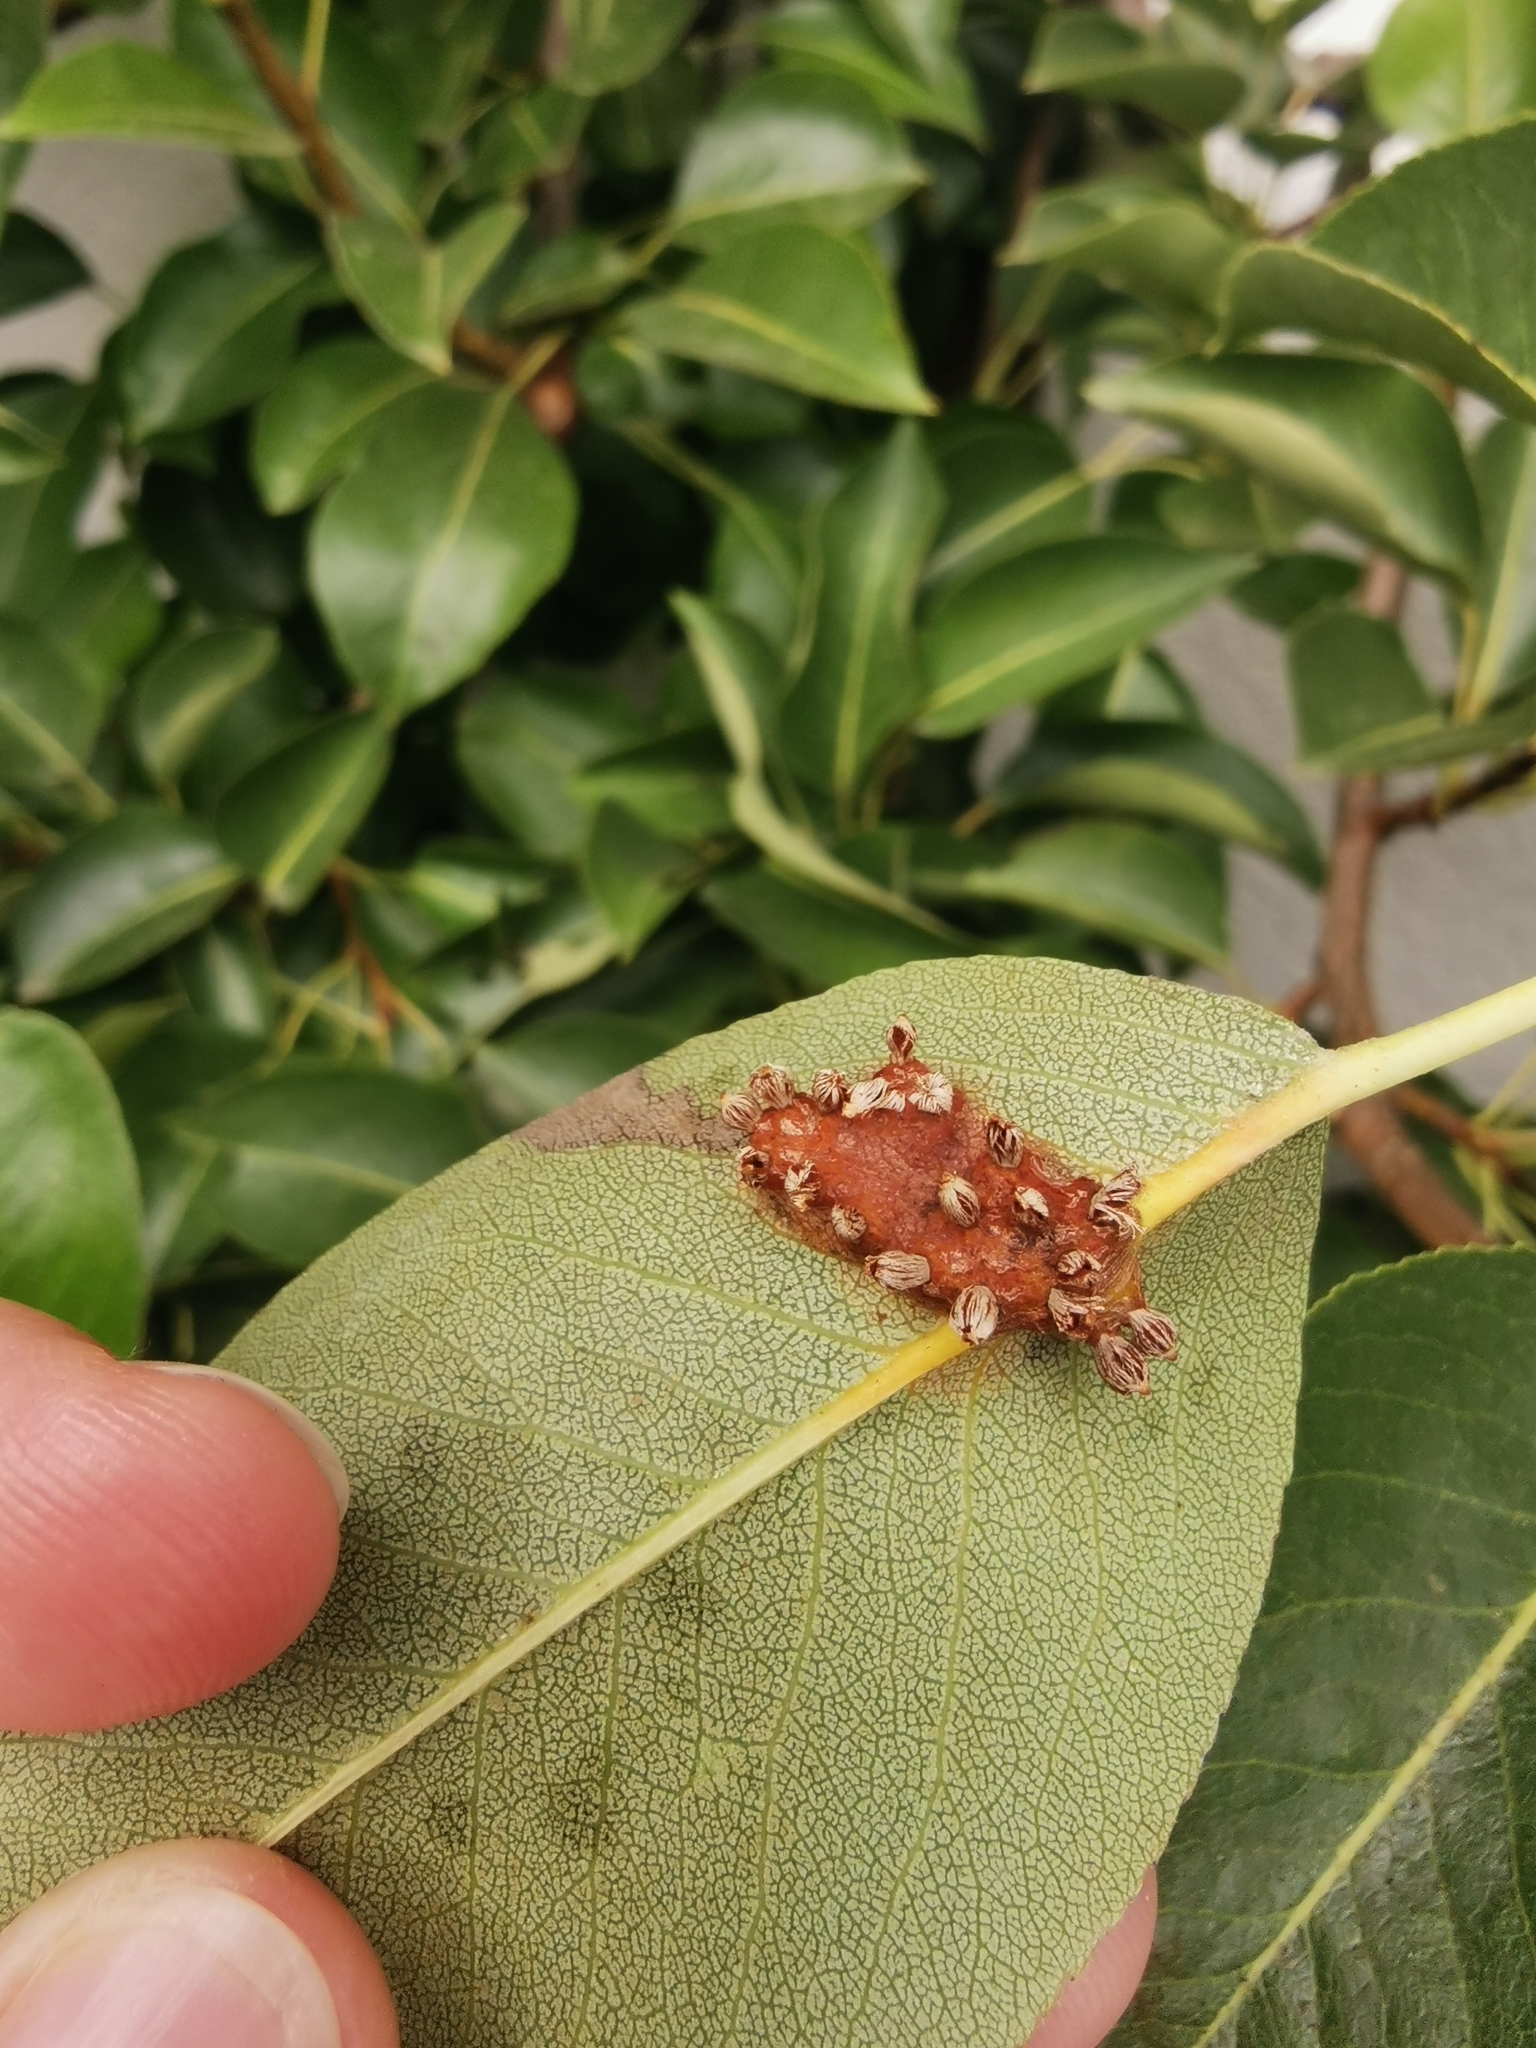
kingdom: Fungi
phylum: Basidiomycota
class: Pucciniomycetes
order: Pucciniales
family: Gymnosporangiaceae
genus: Gymnosporangium
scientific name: Gymnosporangium sabinae
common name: Pear trellis rust fungus
